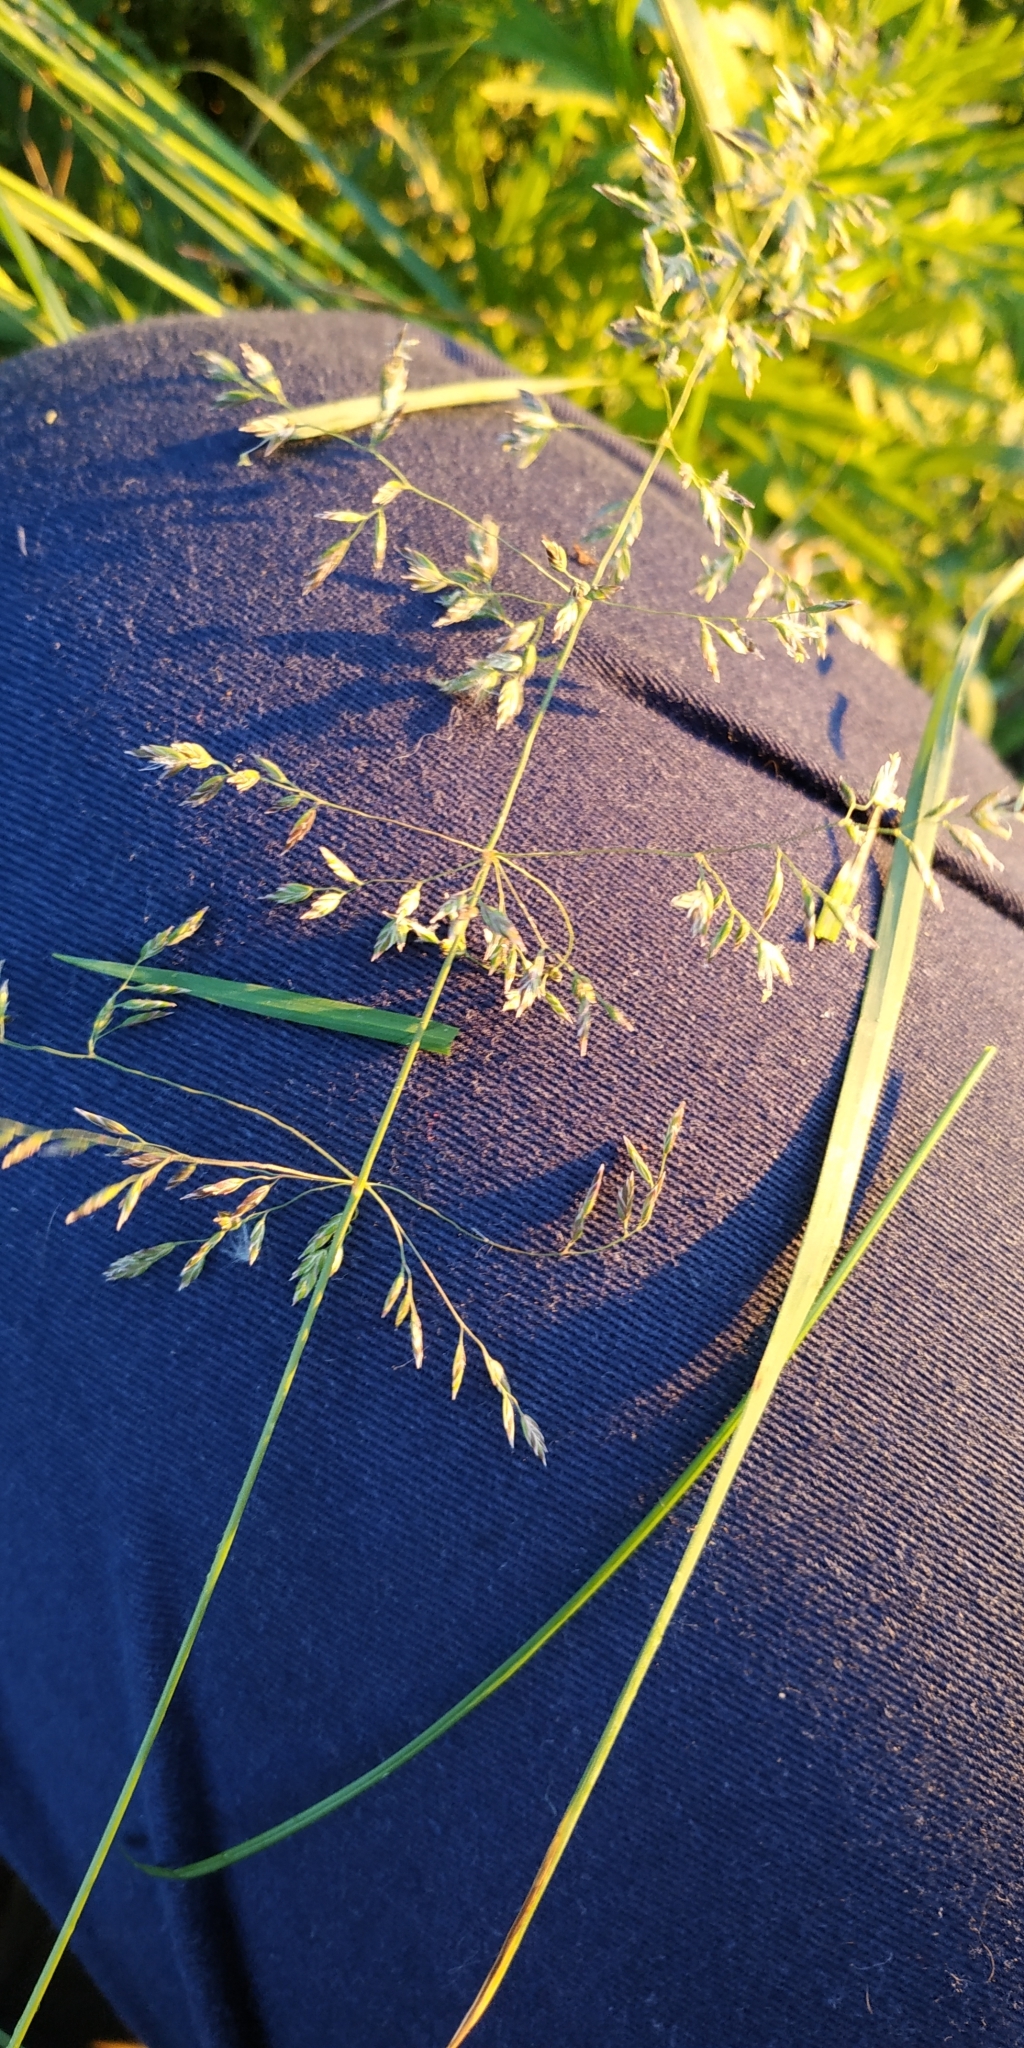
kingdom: Plantae
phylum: Tracheophyta
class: Liliopsida
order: Poales
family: Poaceae
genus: Poa
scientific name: Poa pratensis
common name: Kentucky bluegrass
